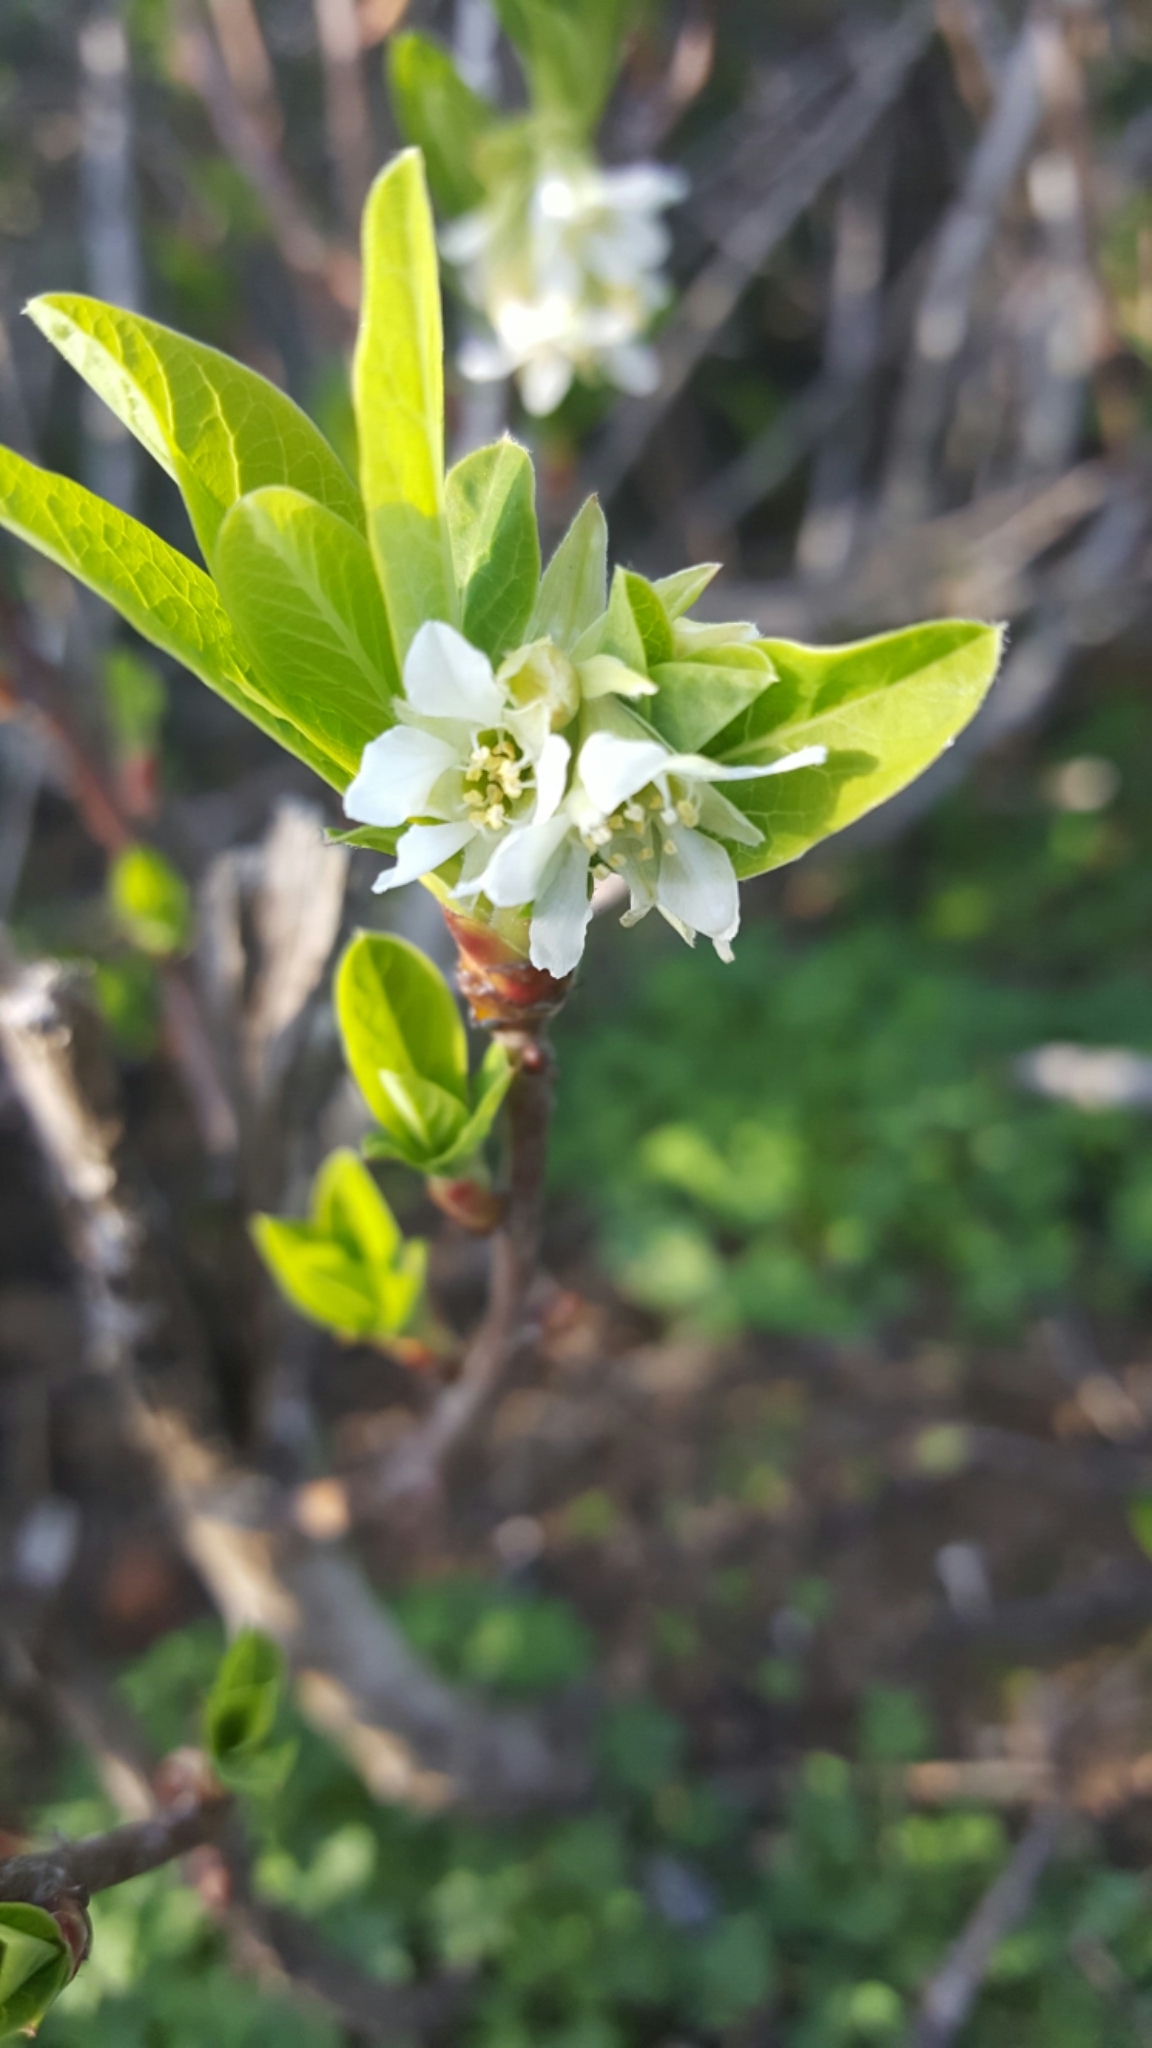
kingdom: Plantae
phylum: Tracheophyta
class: Magnoliopsida
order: Rosales
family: Rosaceae
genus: Oemleria
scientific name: Oemleria cerasiformis
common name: Osoberry
